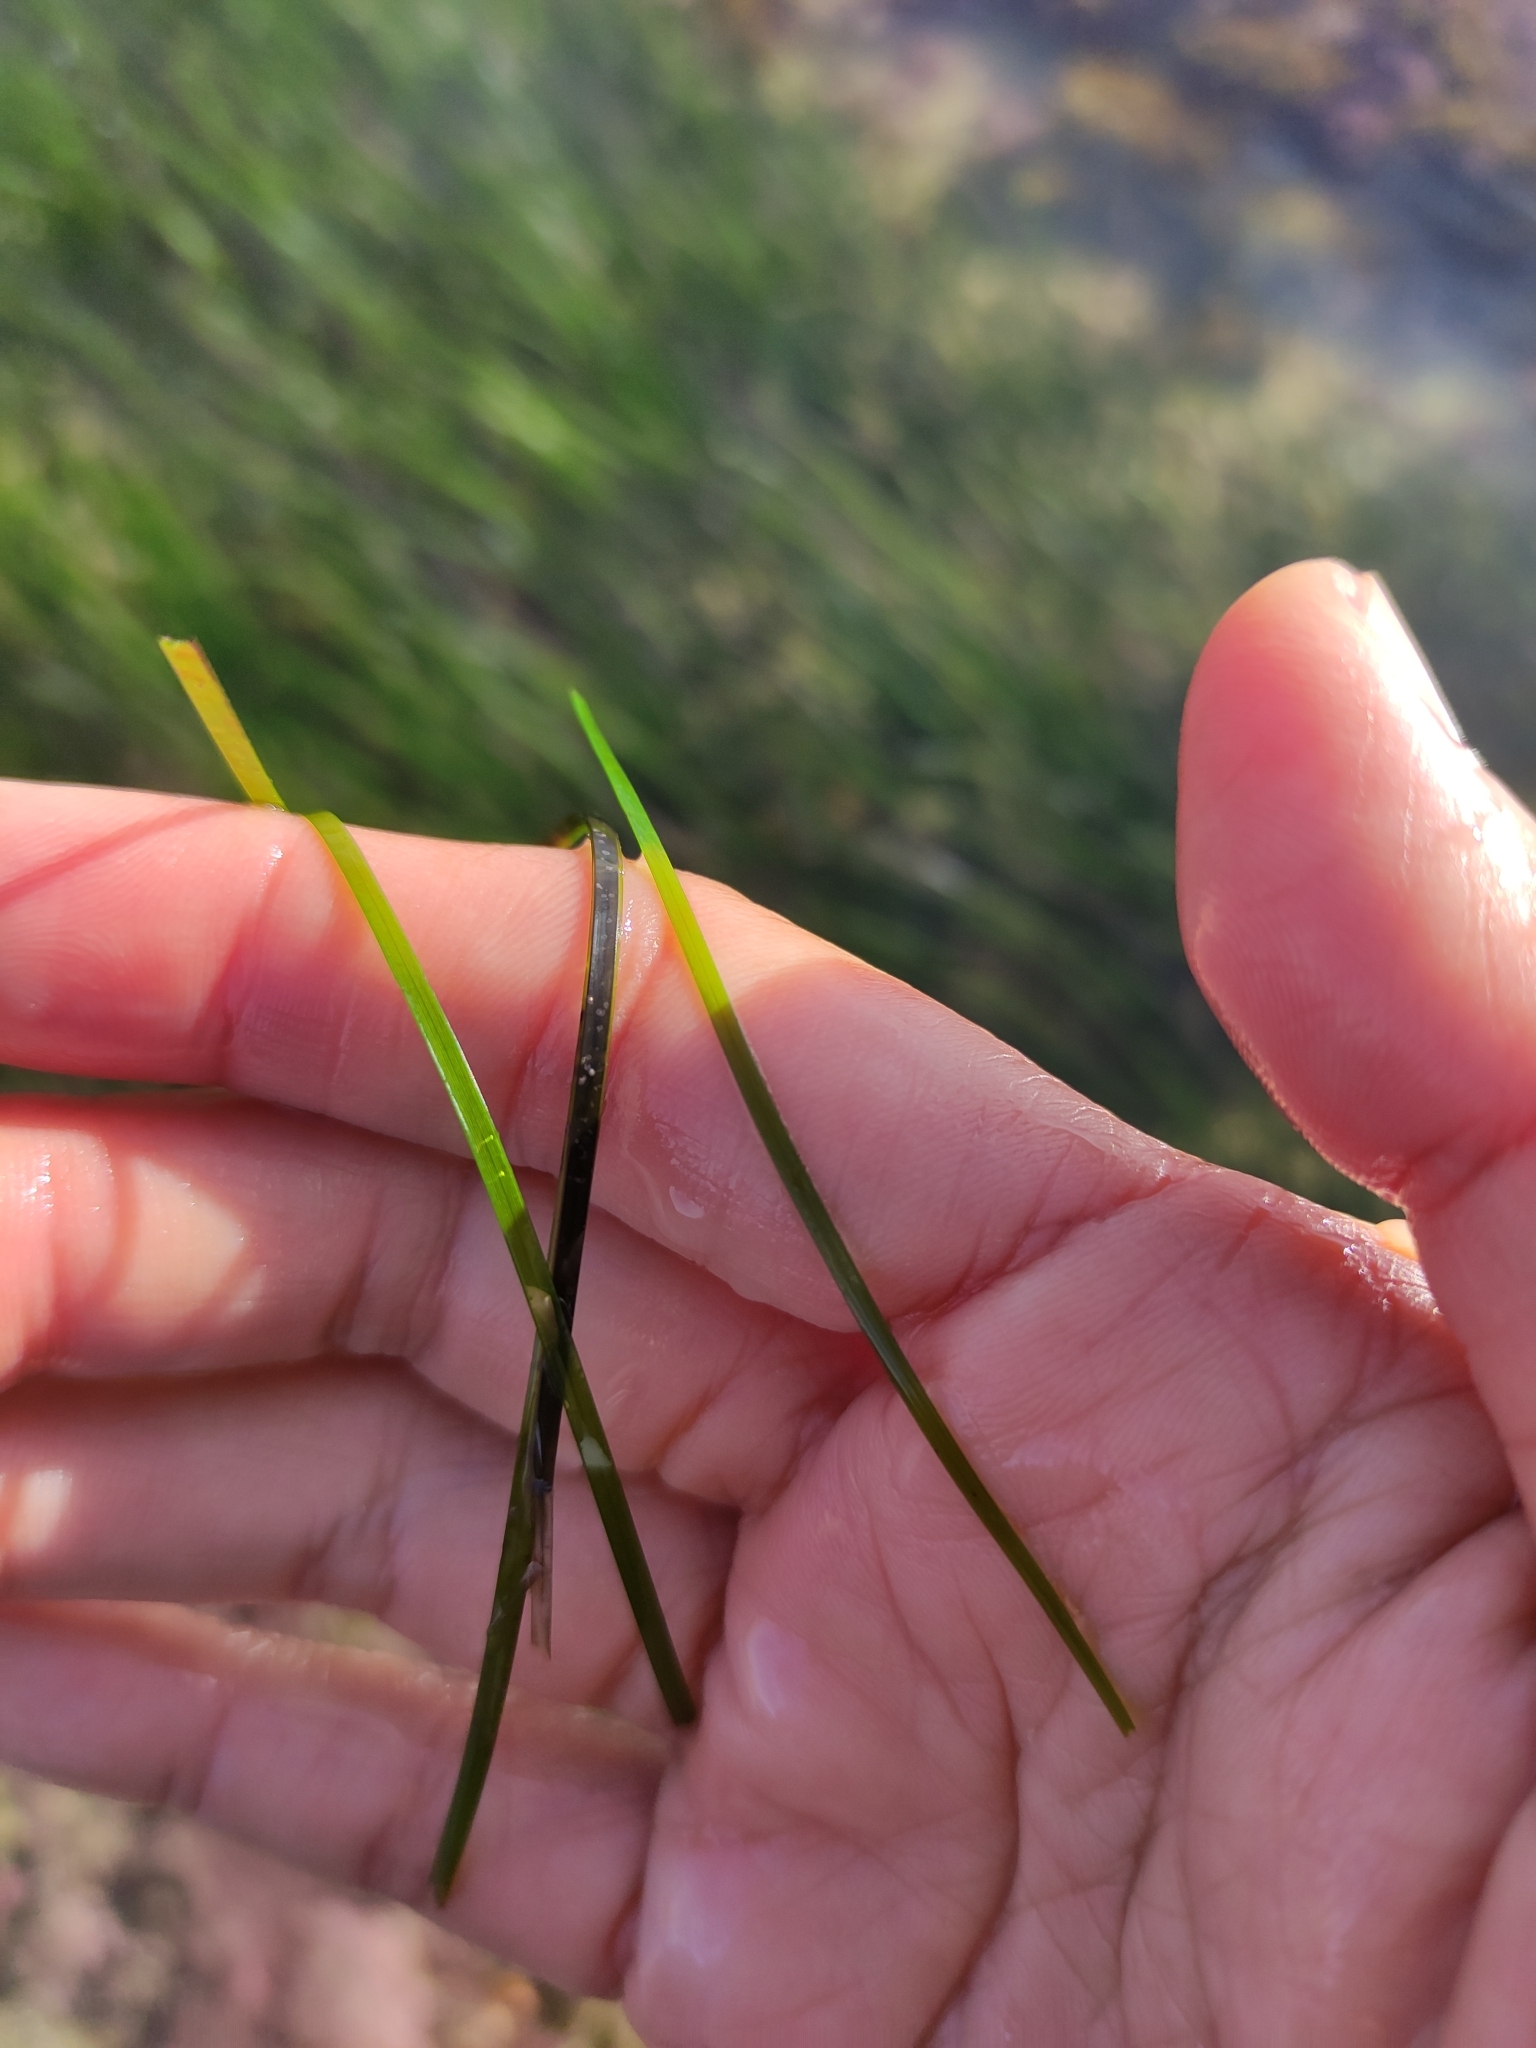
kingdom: Plantae
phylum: Tracheophyta
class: Liliopsida
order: Alismatales
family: Zosteraceae
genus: Zostera
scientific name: Zostera novazelandica
